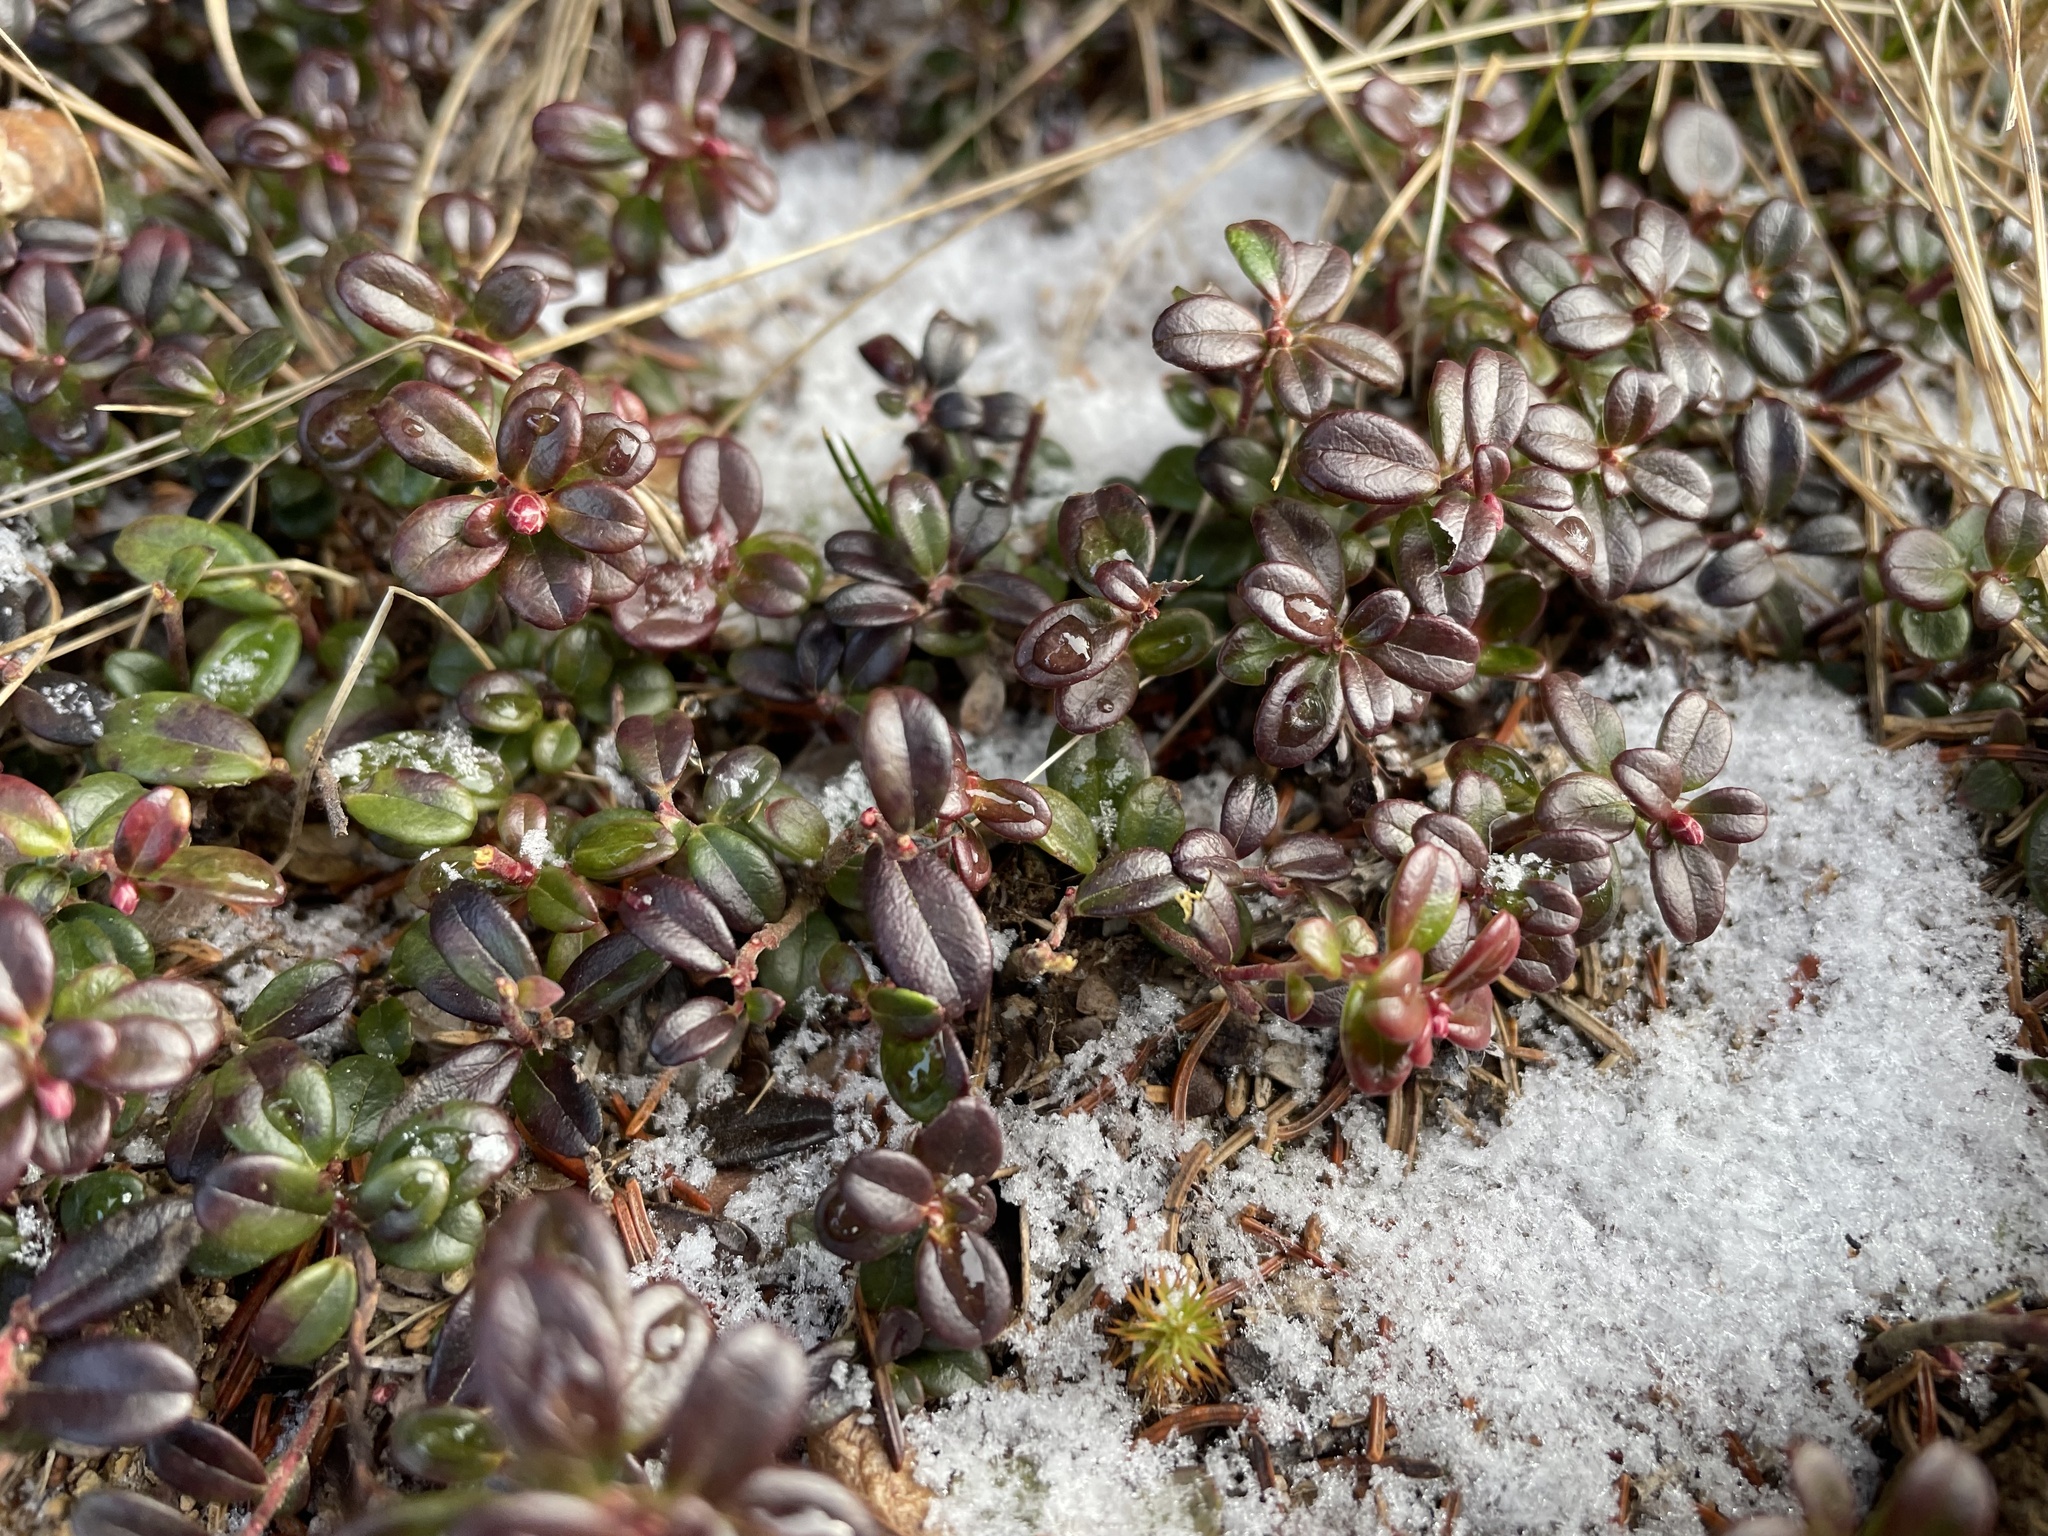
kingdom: Plantae
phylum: Tracheophyta
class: Magnoliopsida
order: Ericales
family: Ericaceae
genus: Vaccinium
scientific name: Vaccinium vitis-idaea
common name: Cowberry
